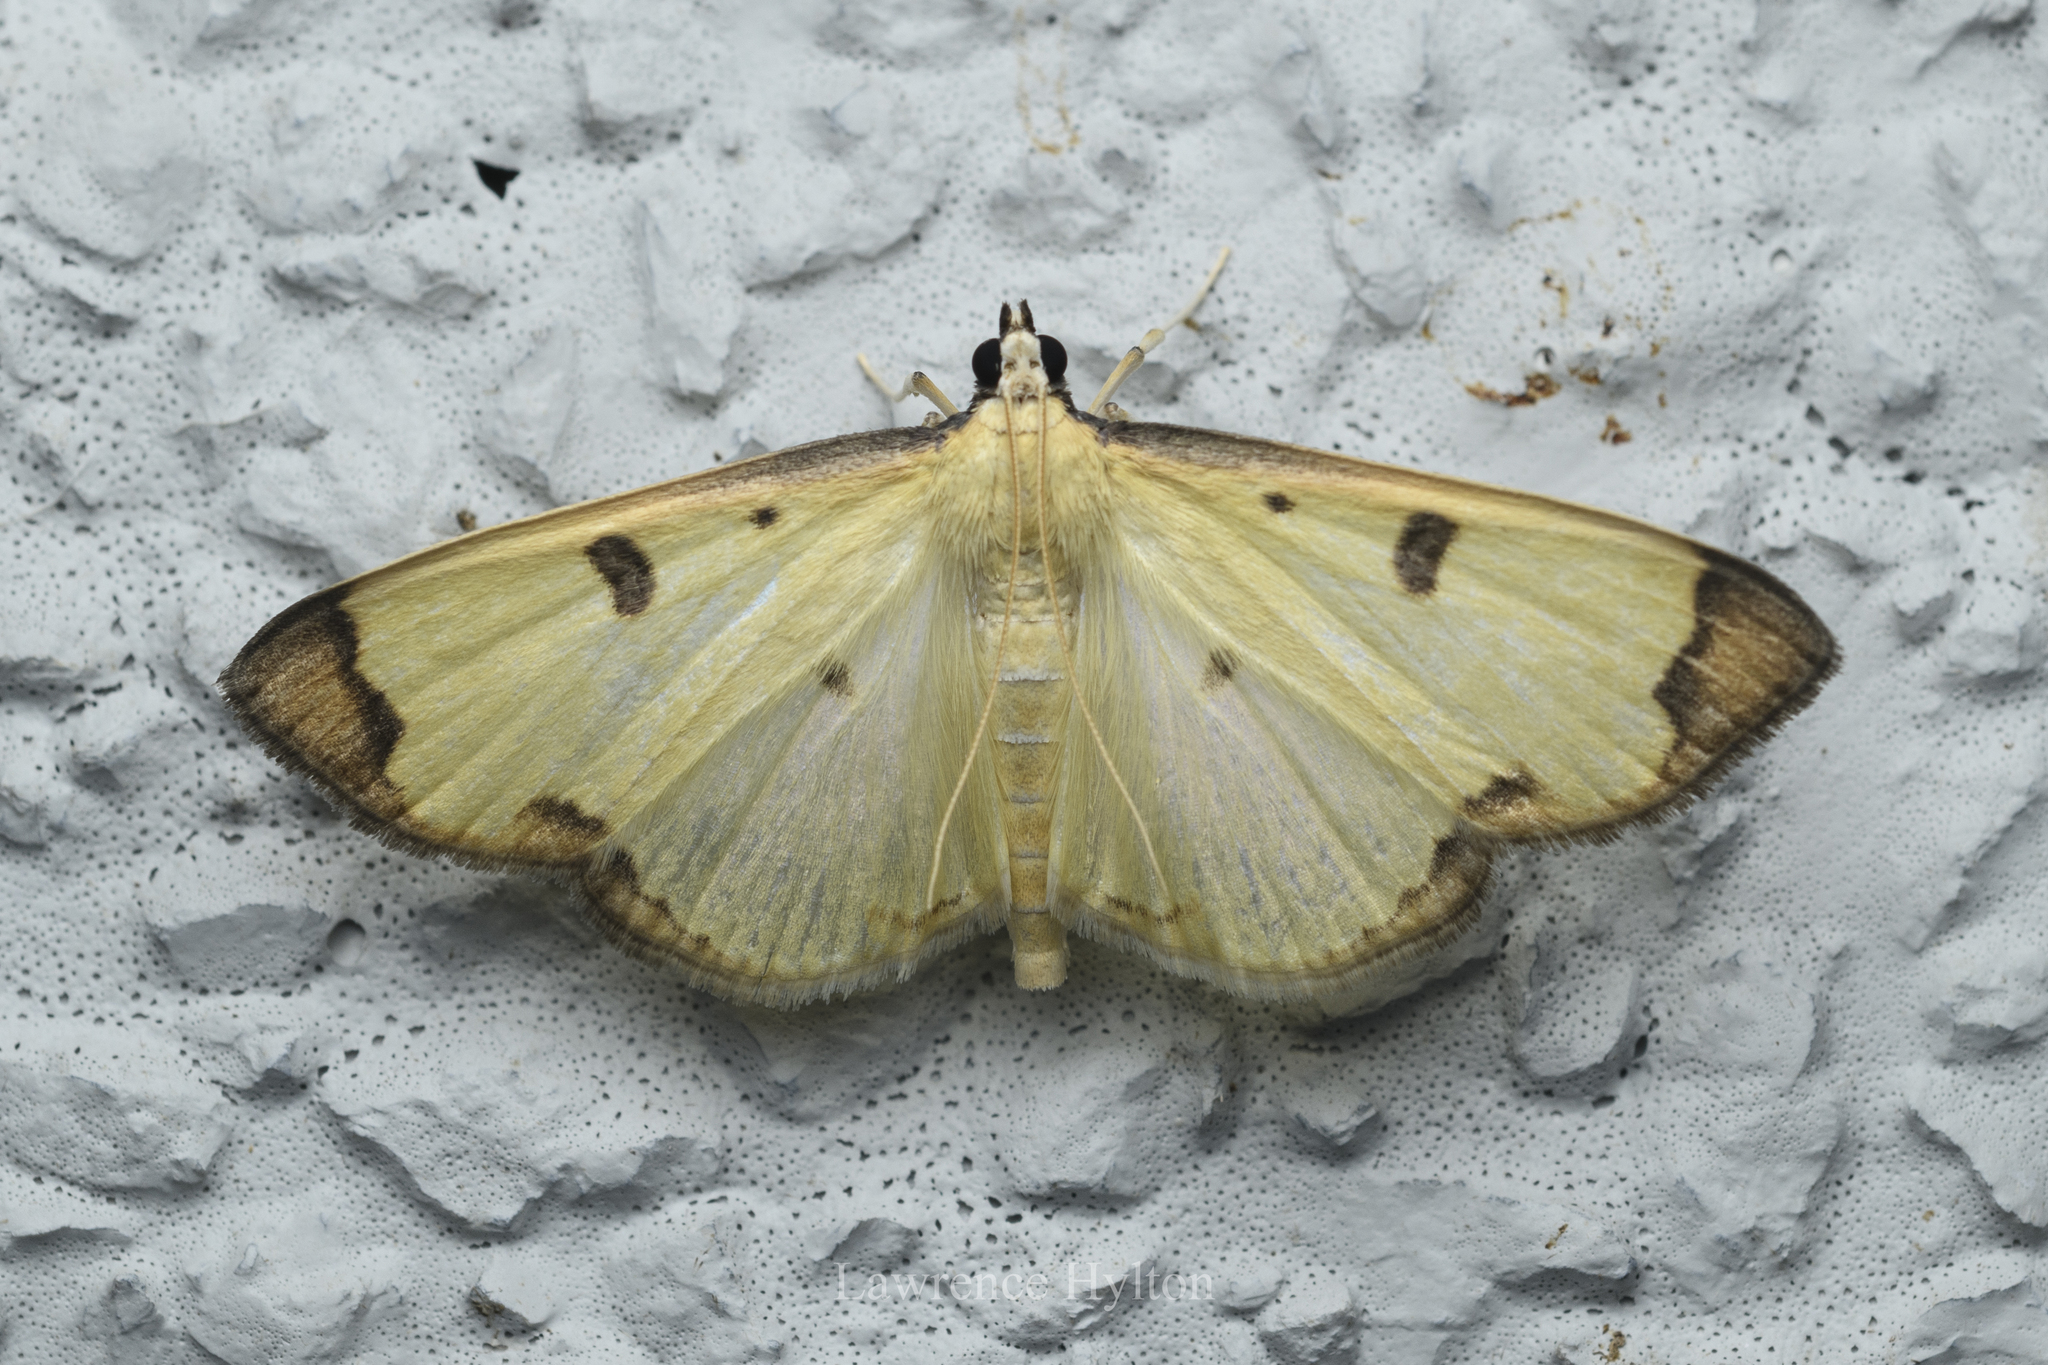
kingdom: Animalia
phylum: Arthropoda
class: Insecta
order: Lepidoptera
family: Pyralidae
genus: Uncobotyodes
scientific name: Uncobotyodes
